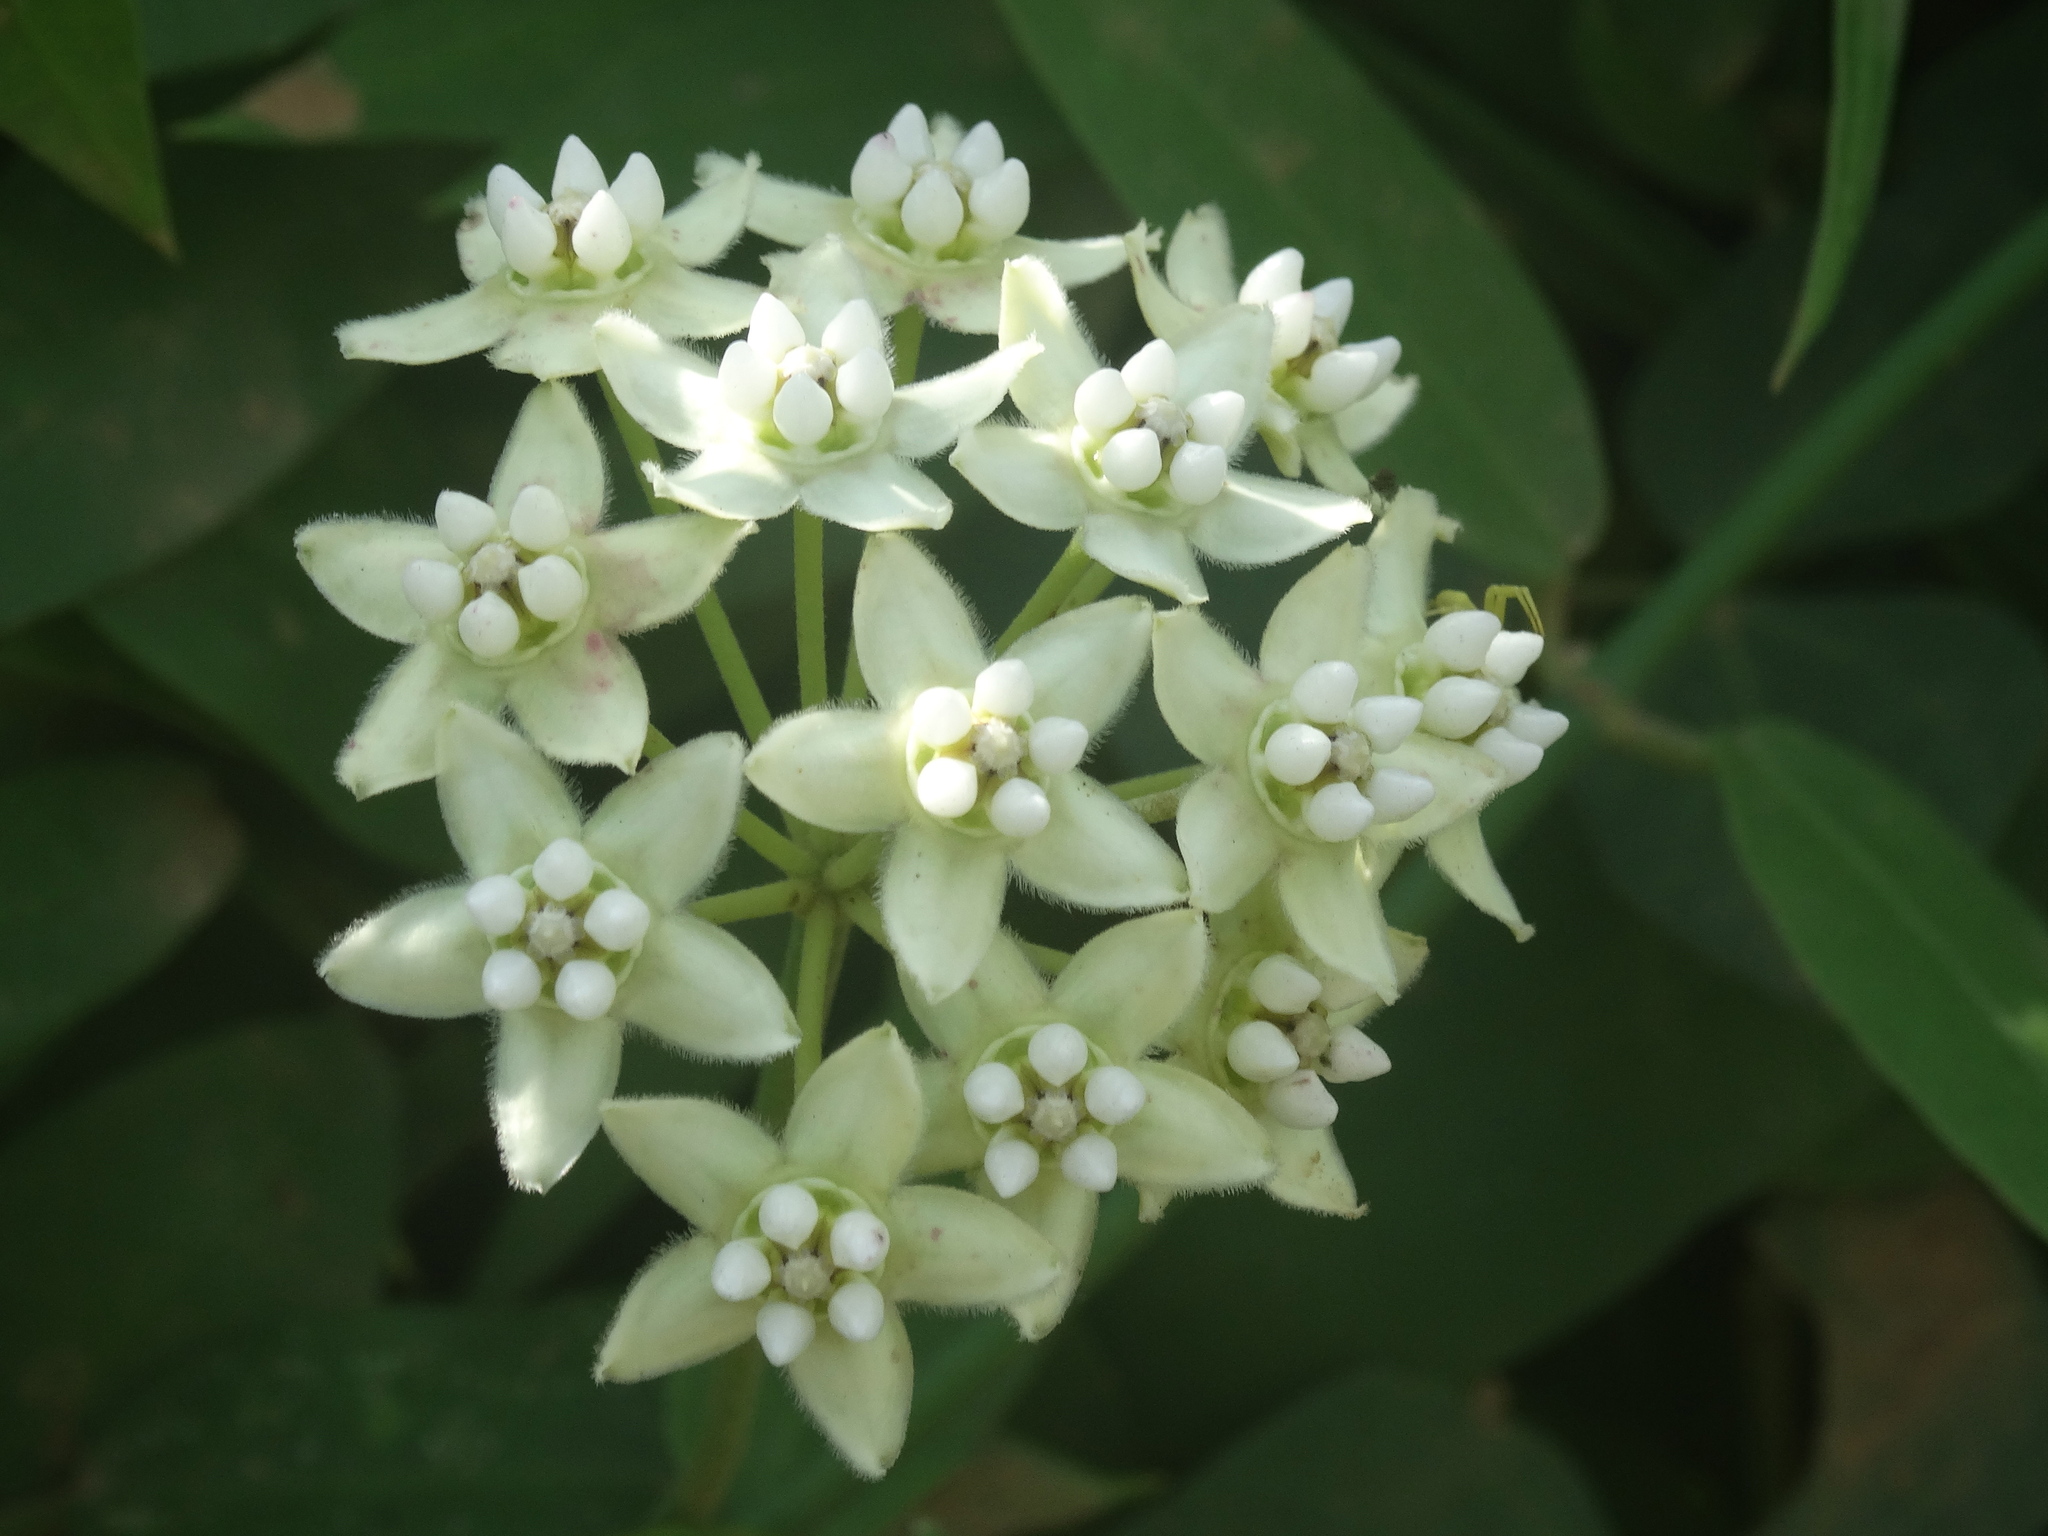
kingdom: Plantae
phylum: Tracheophyta
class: Magnoliopsida
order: Gentianales
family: Apocynaceae
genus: Funastrum
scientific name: Funastrum clausum
